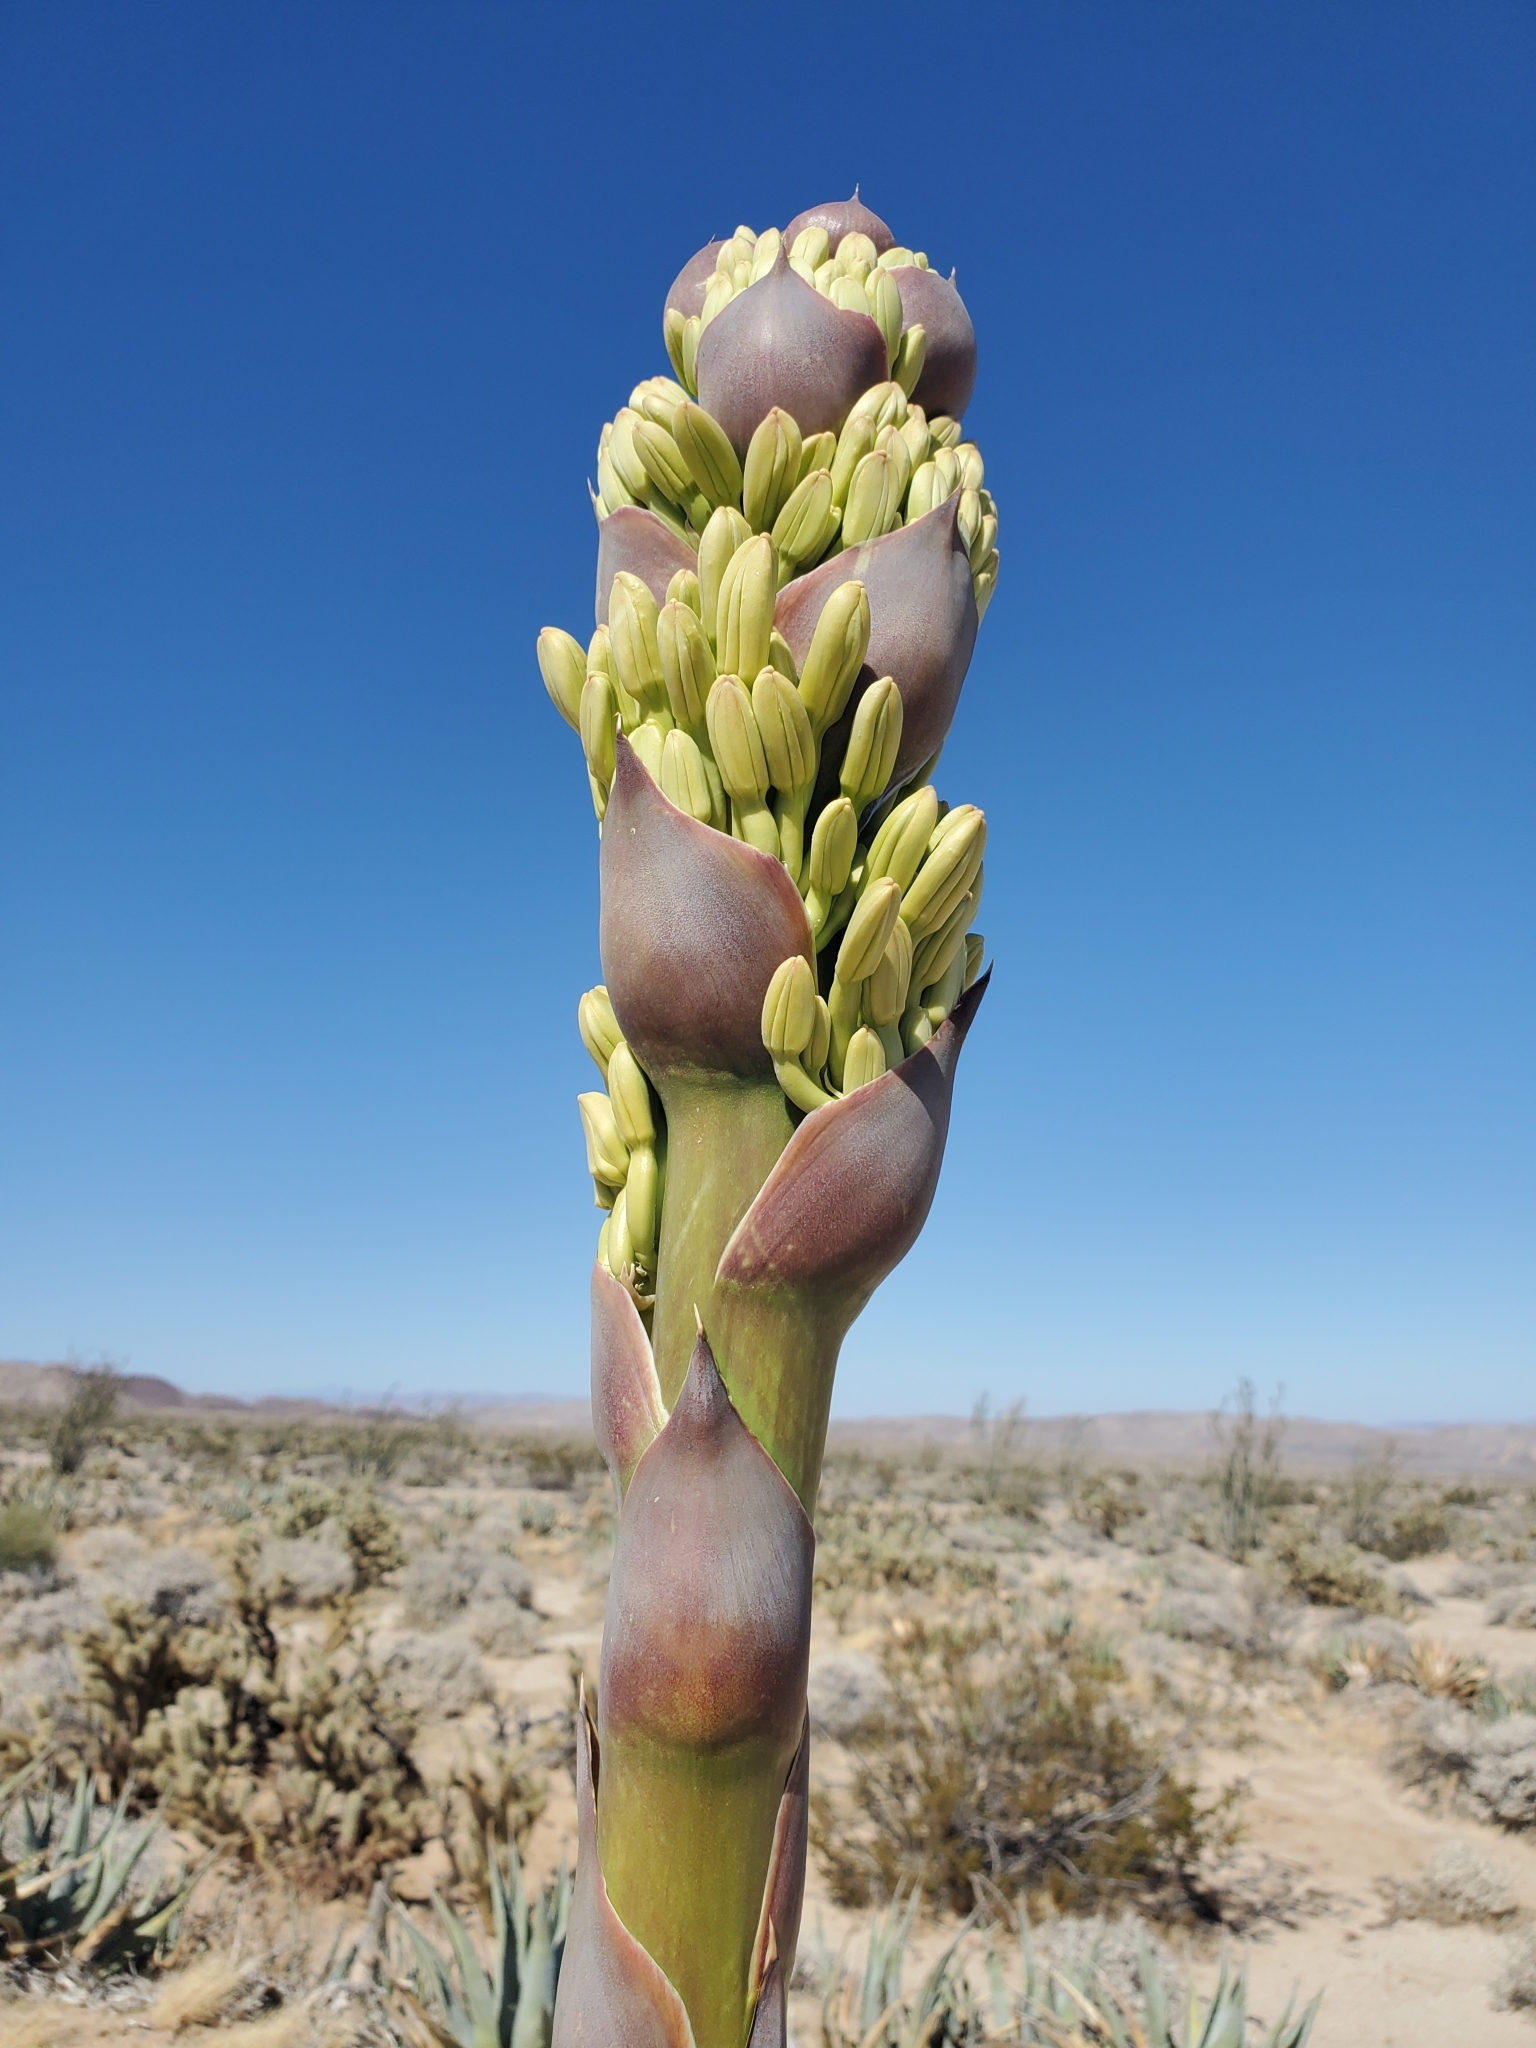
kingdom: Plantae
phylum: Tracheophyta
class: Liliopsida
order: Asparagales
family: Asparagaceae
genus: Agave
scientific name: Agave deserti
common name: Desert agave
